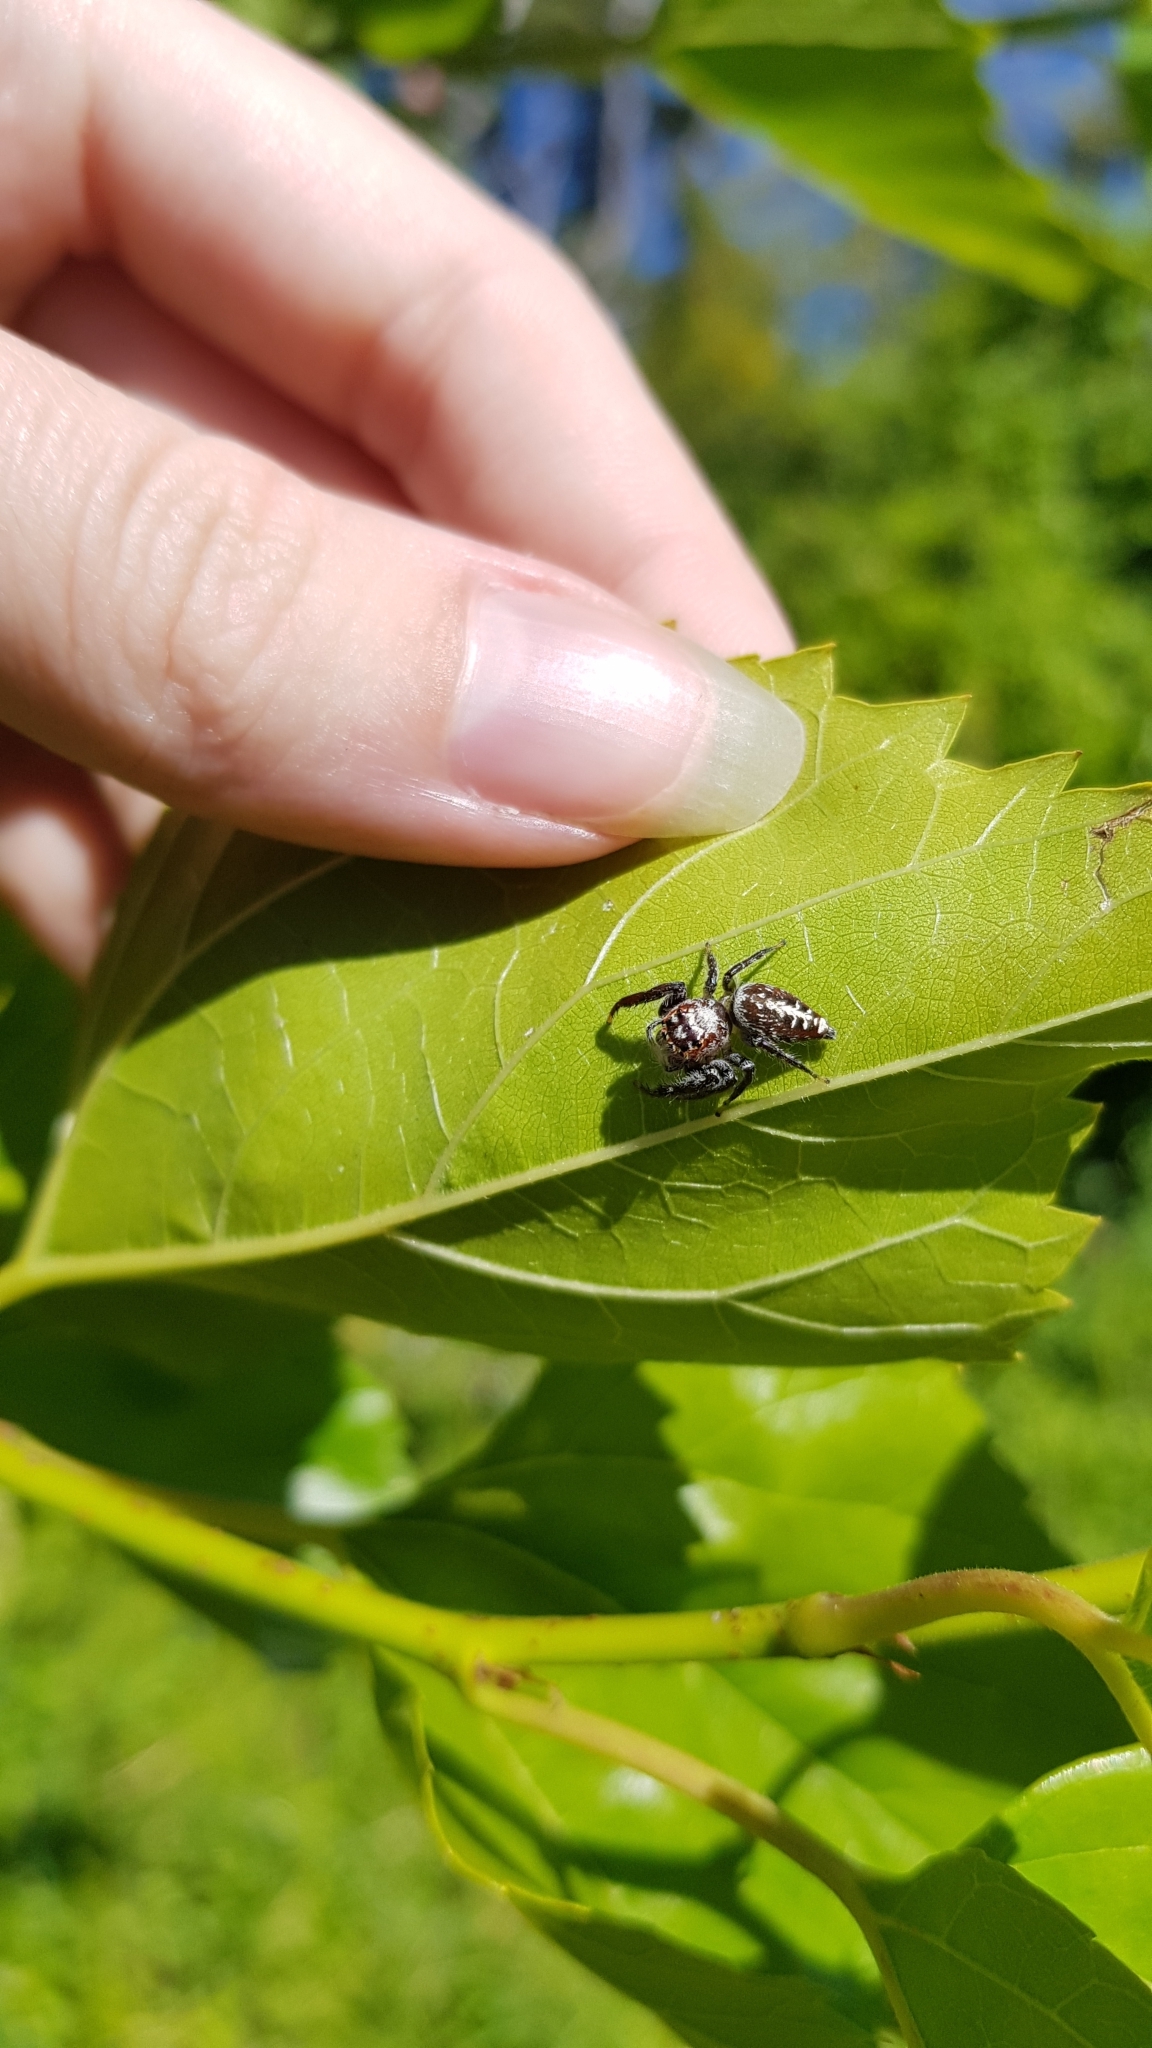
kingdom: Animalia
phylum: Arthropoda
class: Arachnida
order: Araneae
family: Salticidae
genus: Opisthoncus
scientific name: Opisthoncus quadratarius
